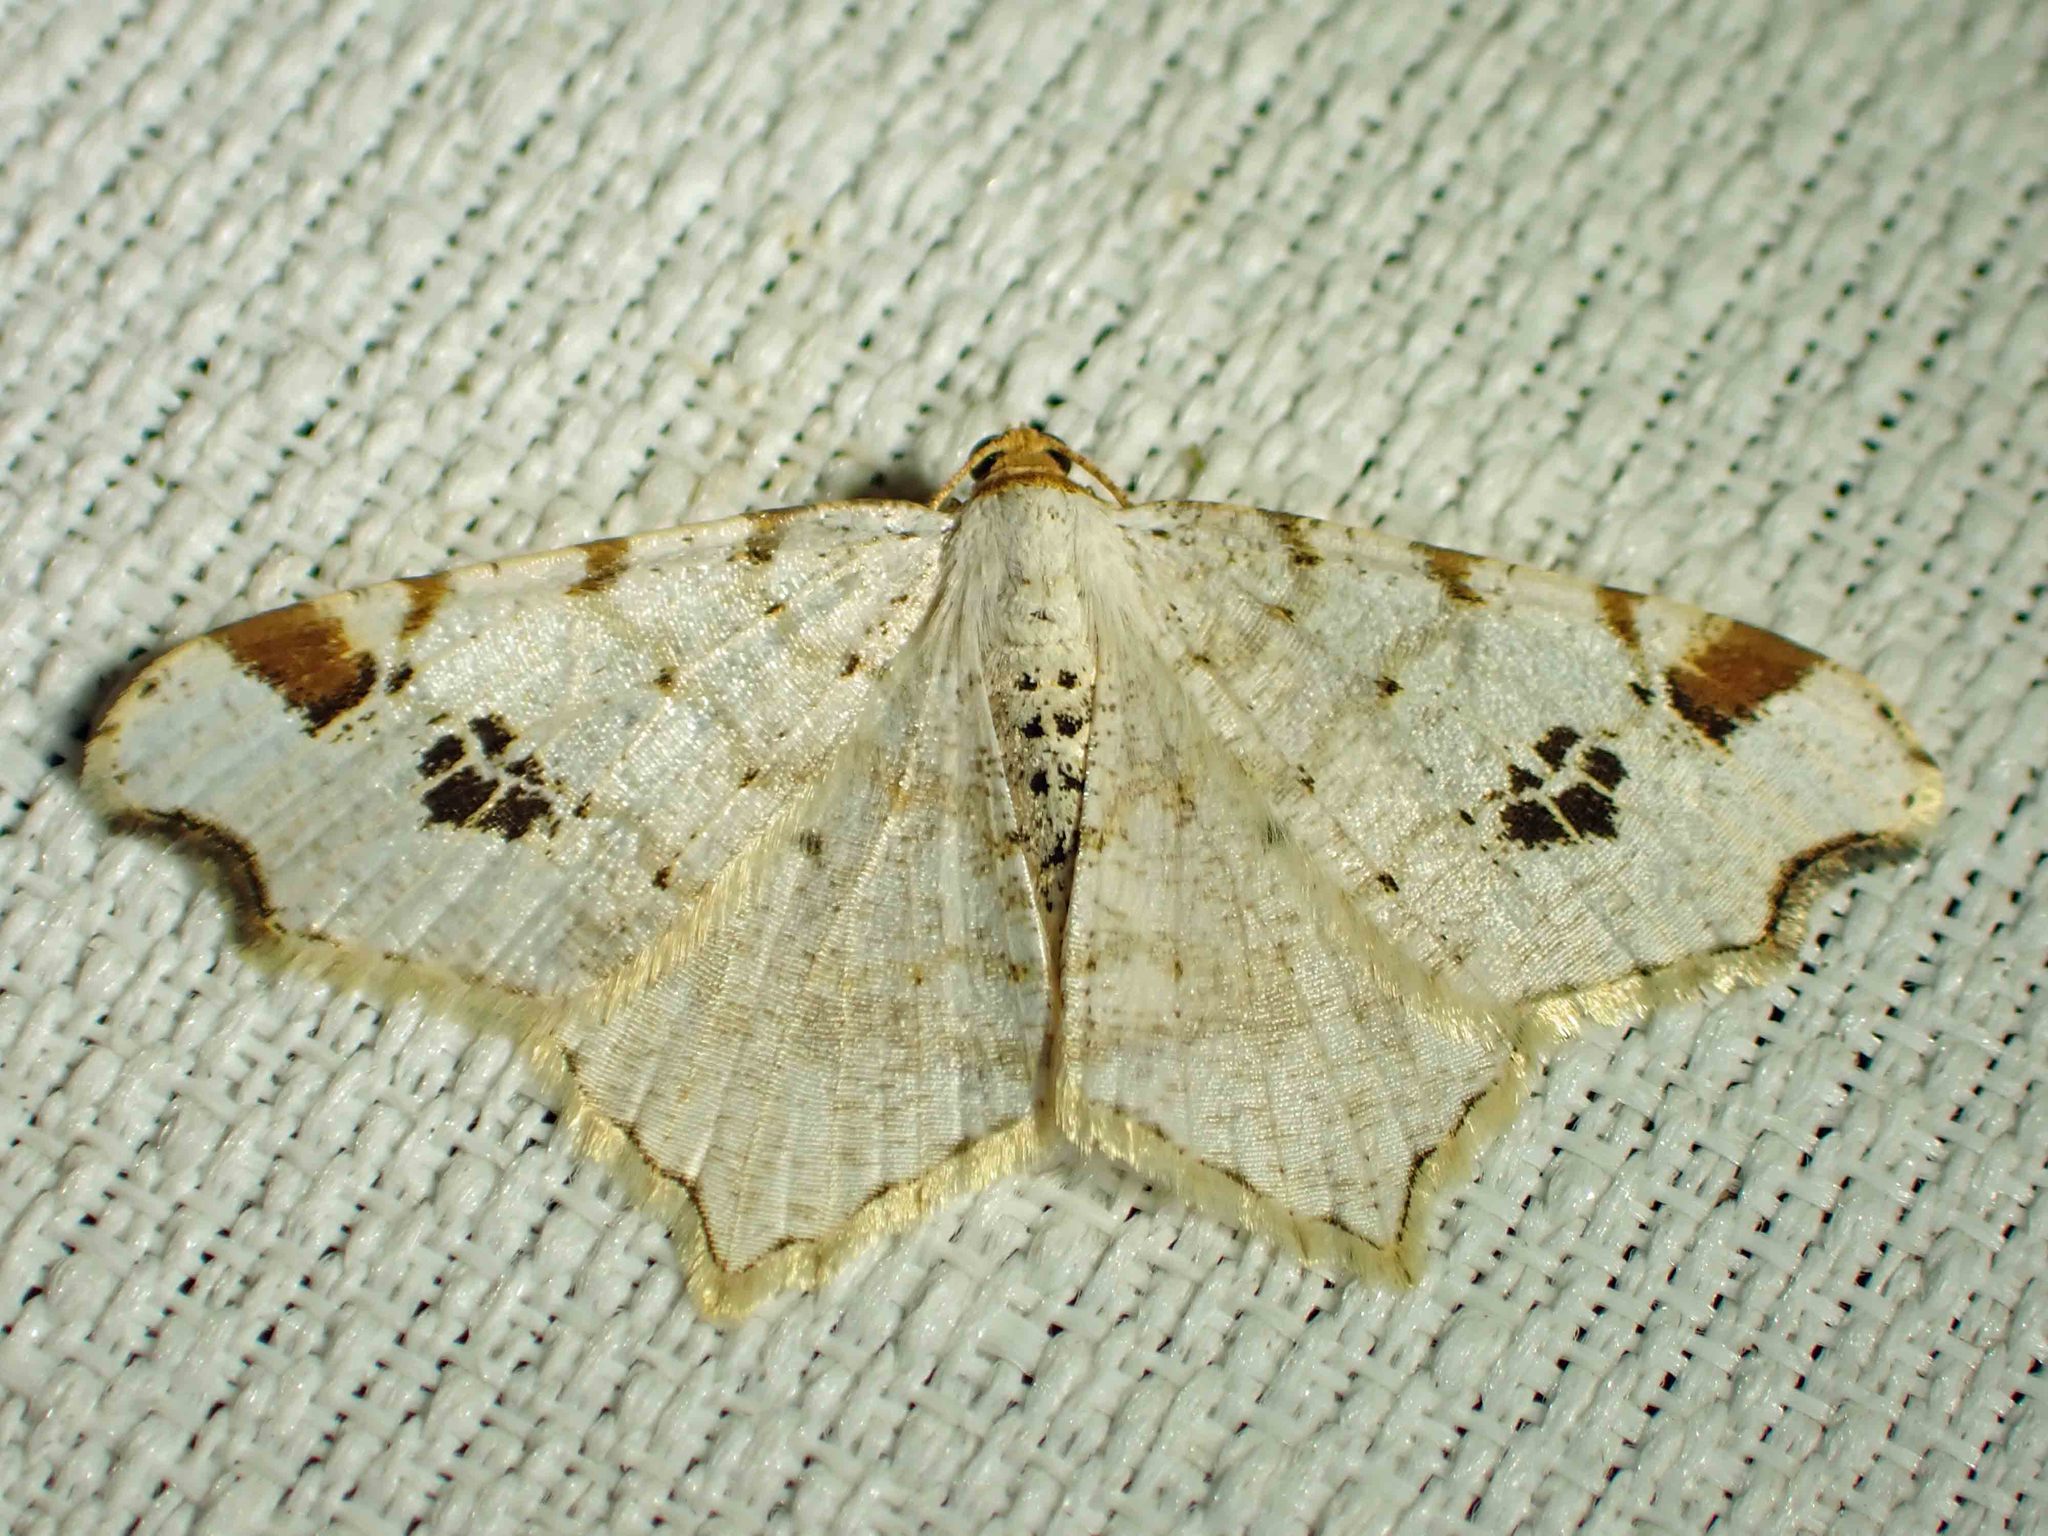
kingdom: Animalia
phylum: Arthropoda
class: Insecta
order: Lepidoptera
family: Geometridae
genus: Macaria
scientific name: Macaria ulsterata
